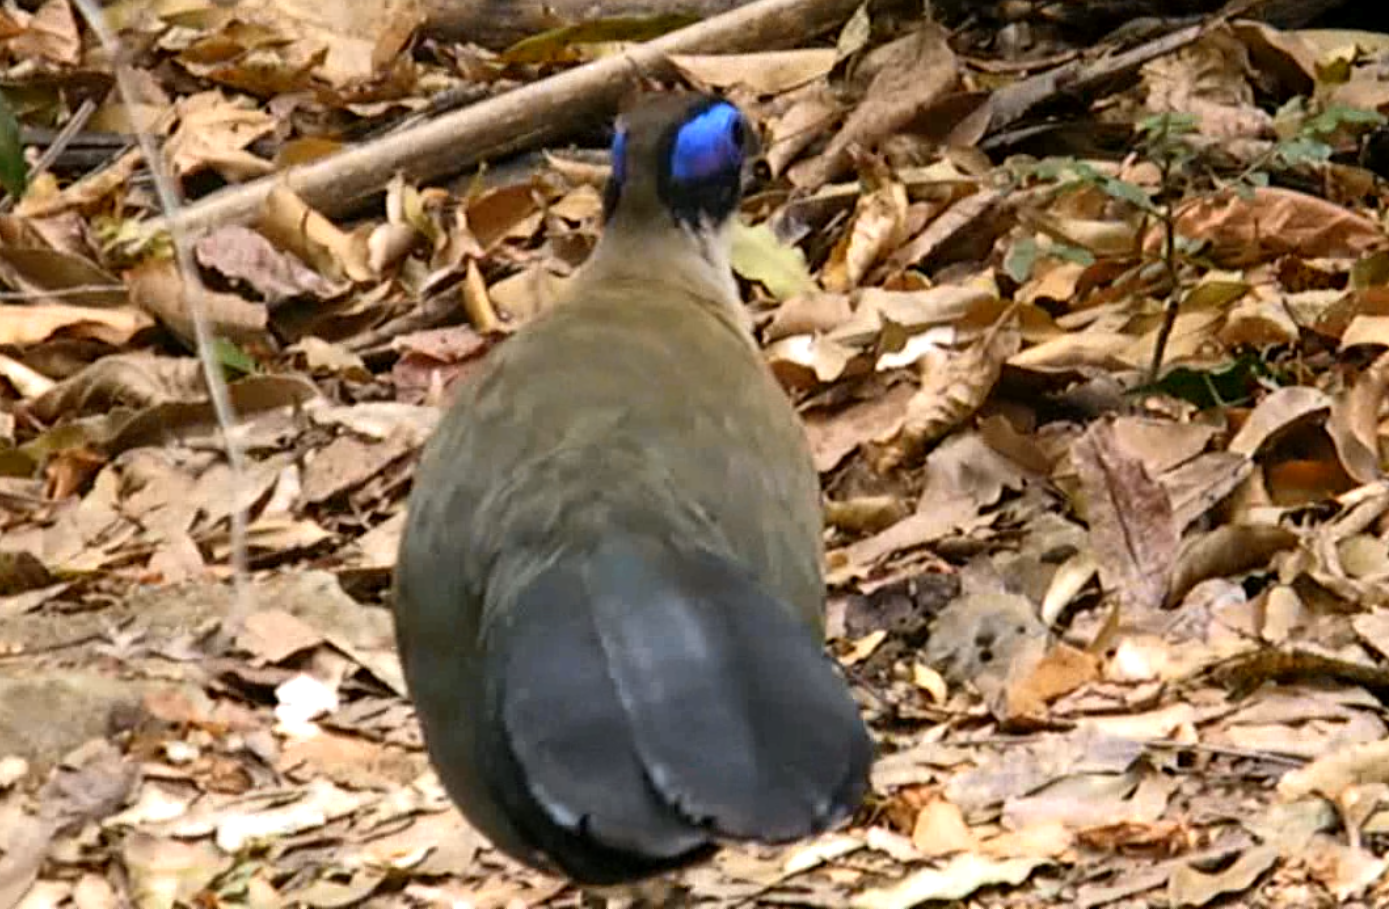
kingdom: Animalia
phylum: Chordata
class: Aves
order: Cuculiformes
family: Cuculidae
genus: Coua
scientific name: Coua gigas
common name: Giant coua
